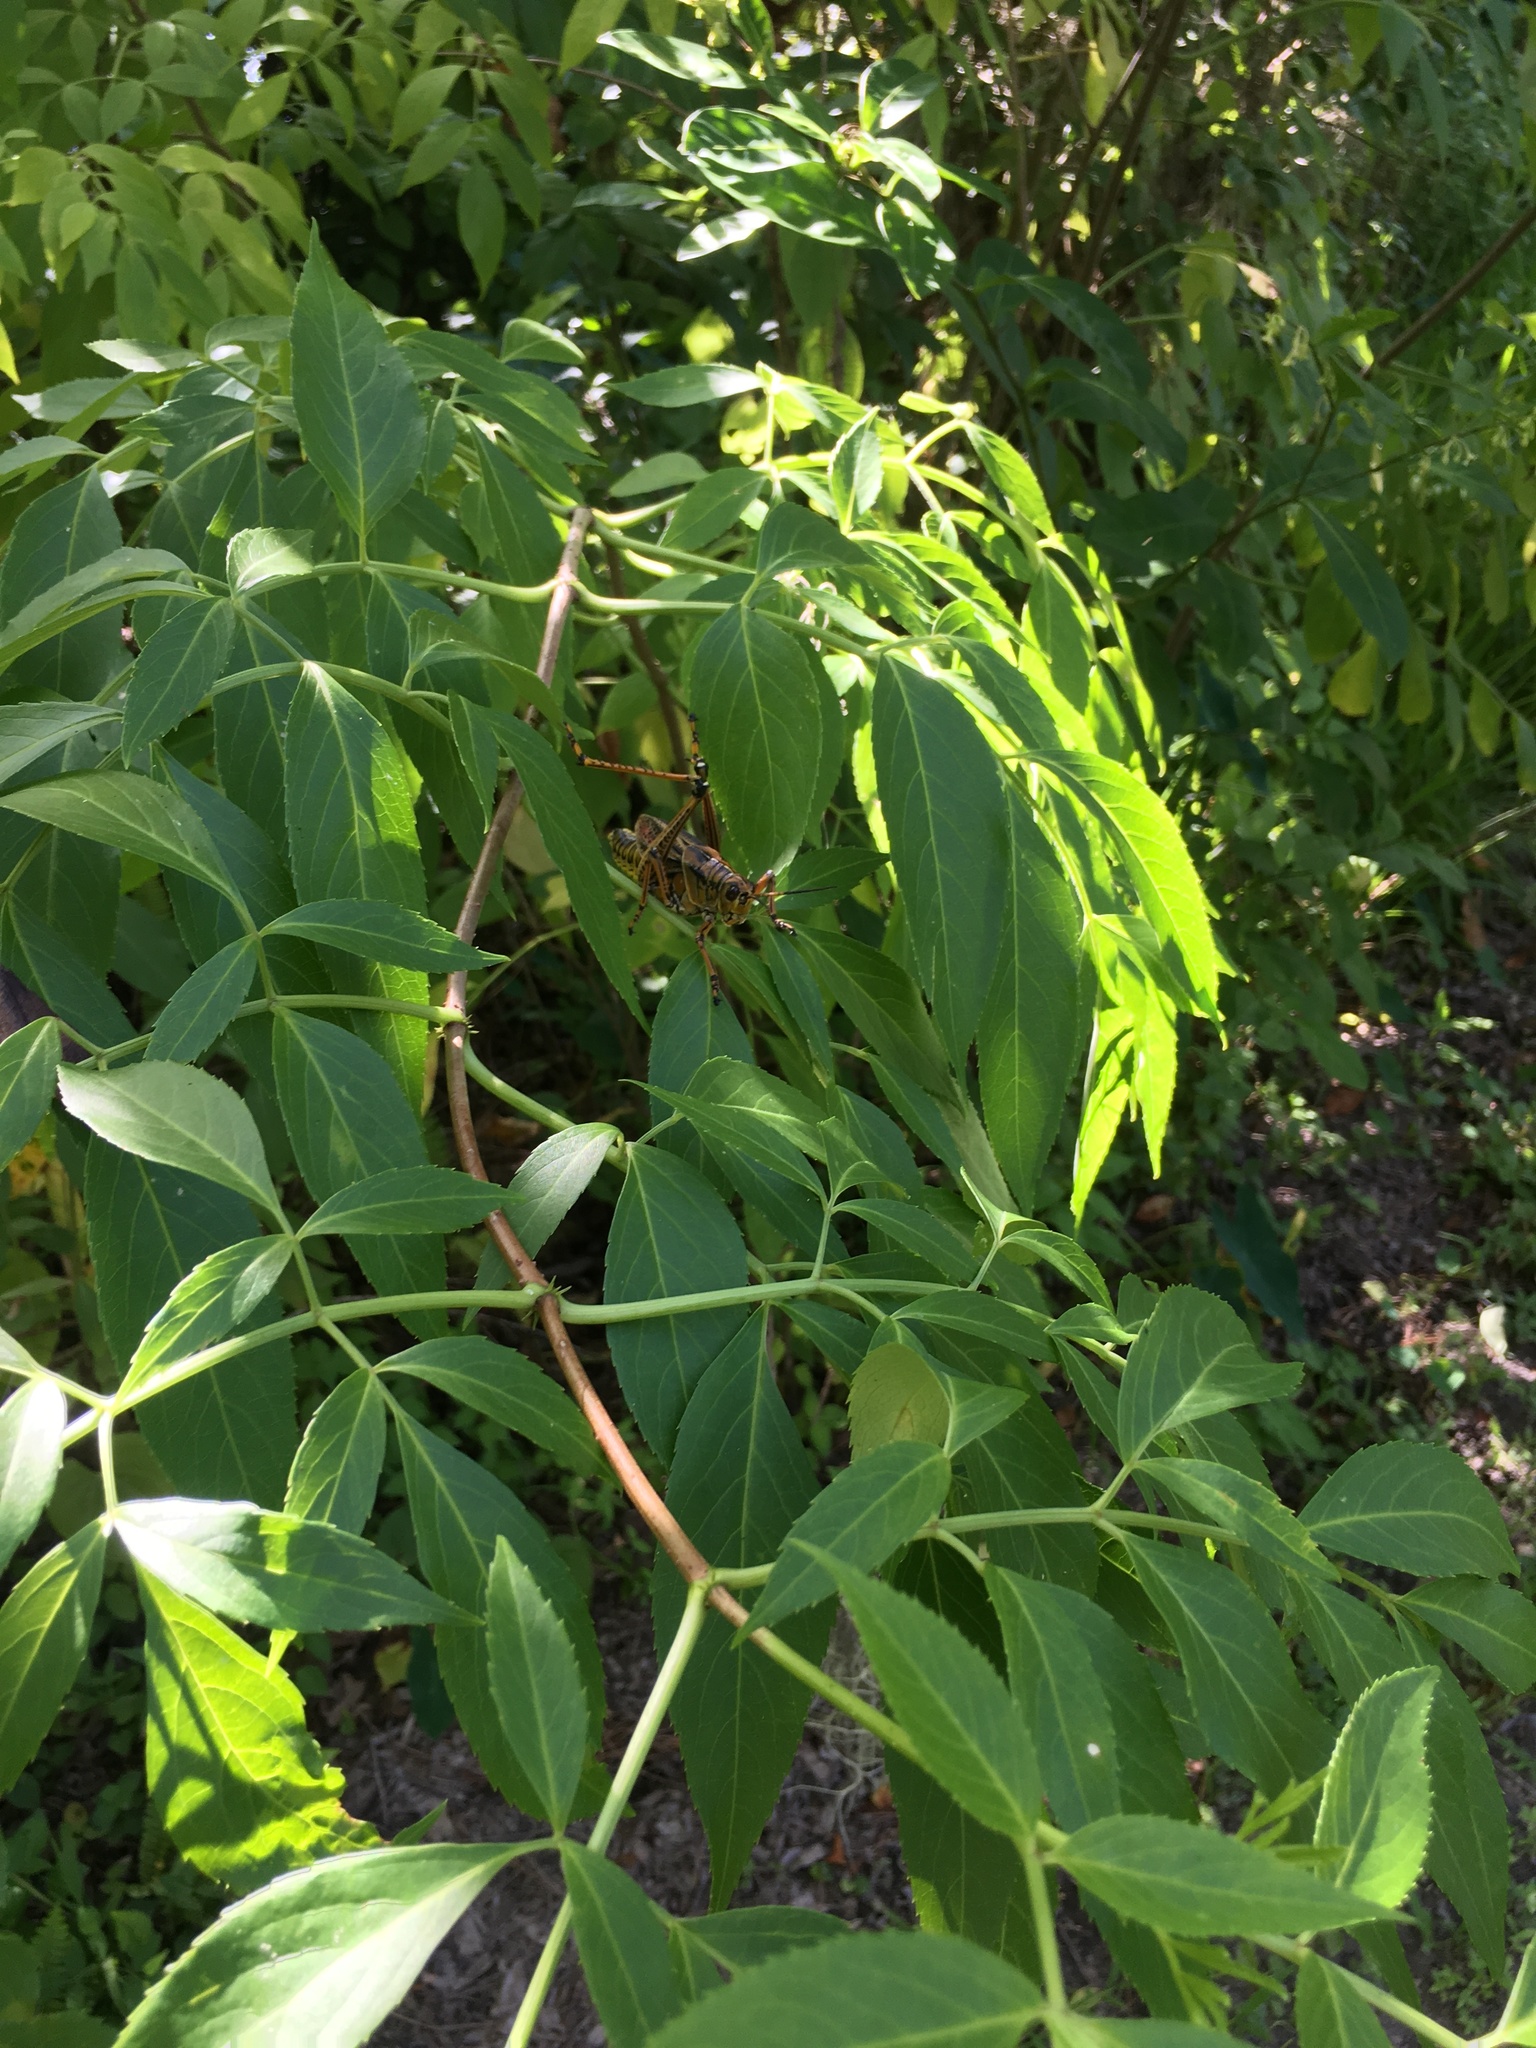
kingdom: Animalia
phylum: Arthropoda
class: Insecta
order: Orthoptera
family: Romaleidae
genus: Romalea
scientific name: Romalea microptera
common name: Eastern lubber grasshopper
